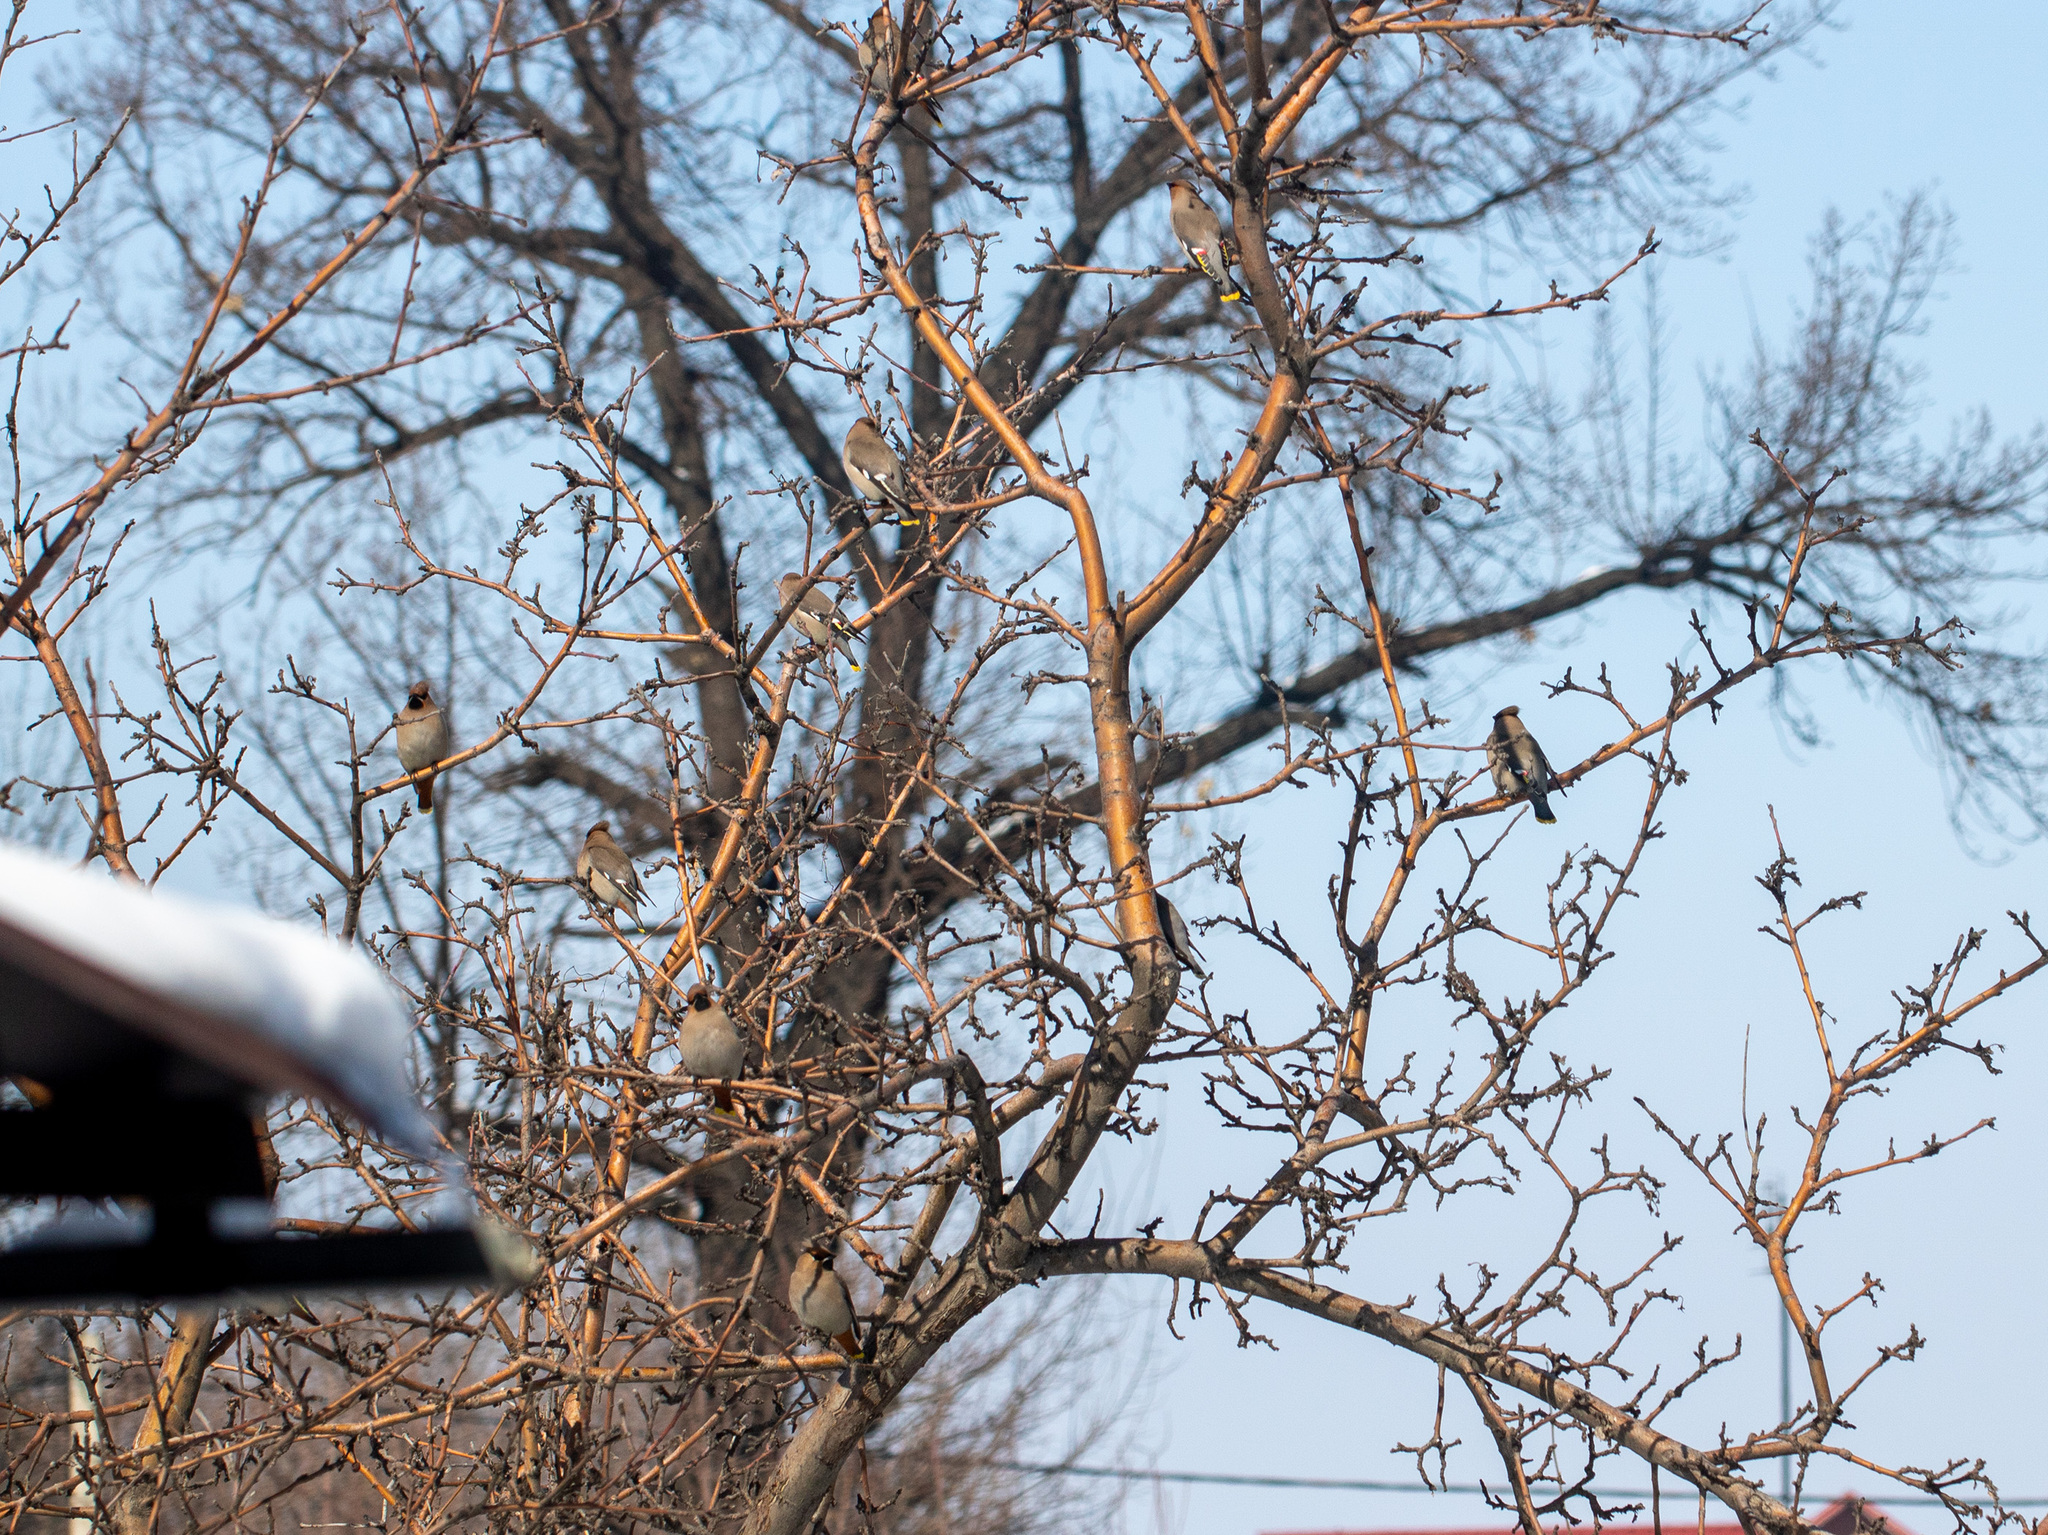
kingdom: Animalia
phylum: Chordata
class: Aves
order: Passeriformes
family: Bombycillidae
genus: Bombycilla
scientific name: Bombycilla garrulus
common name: Bohemian waxwing
